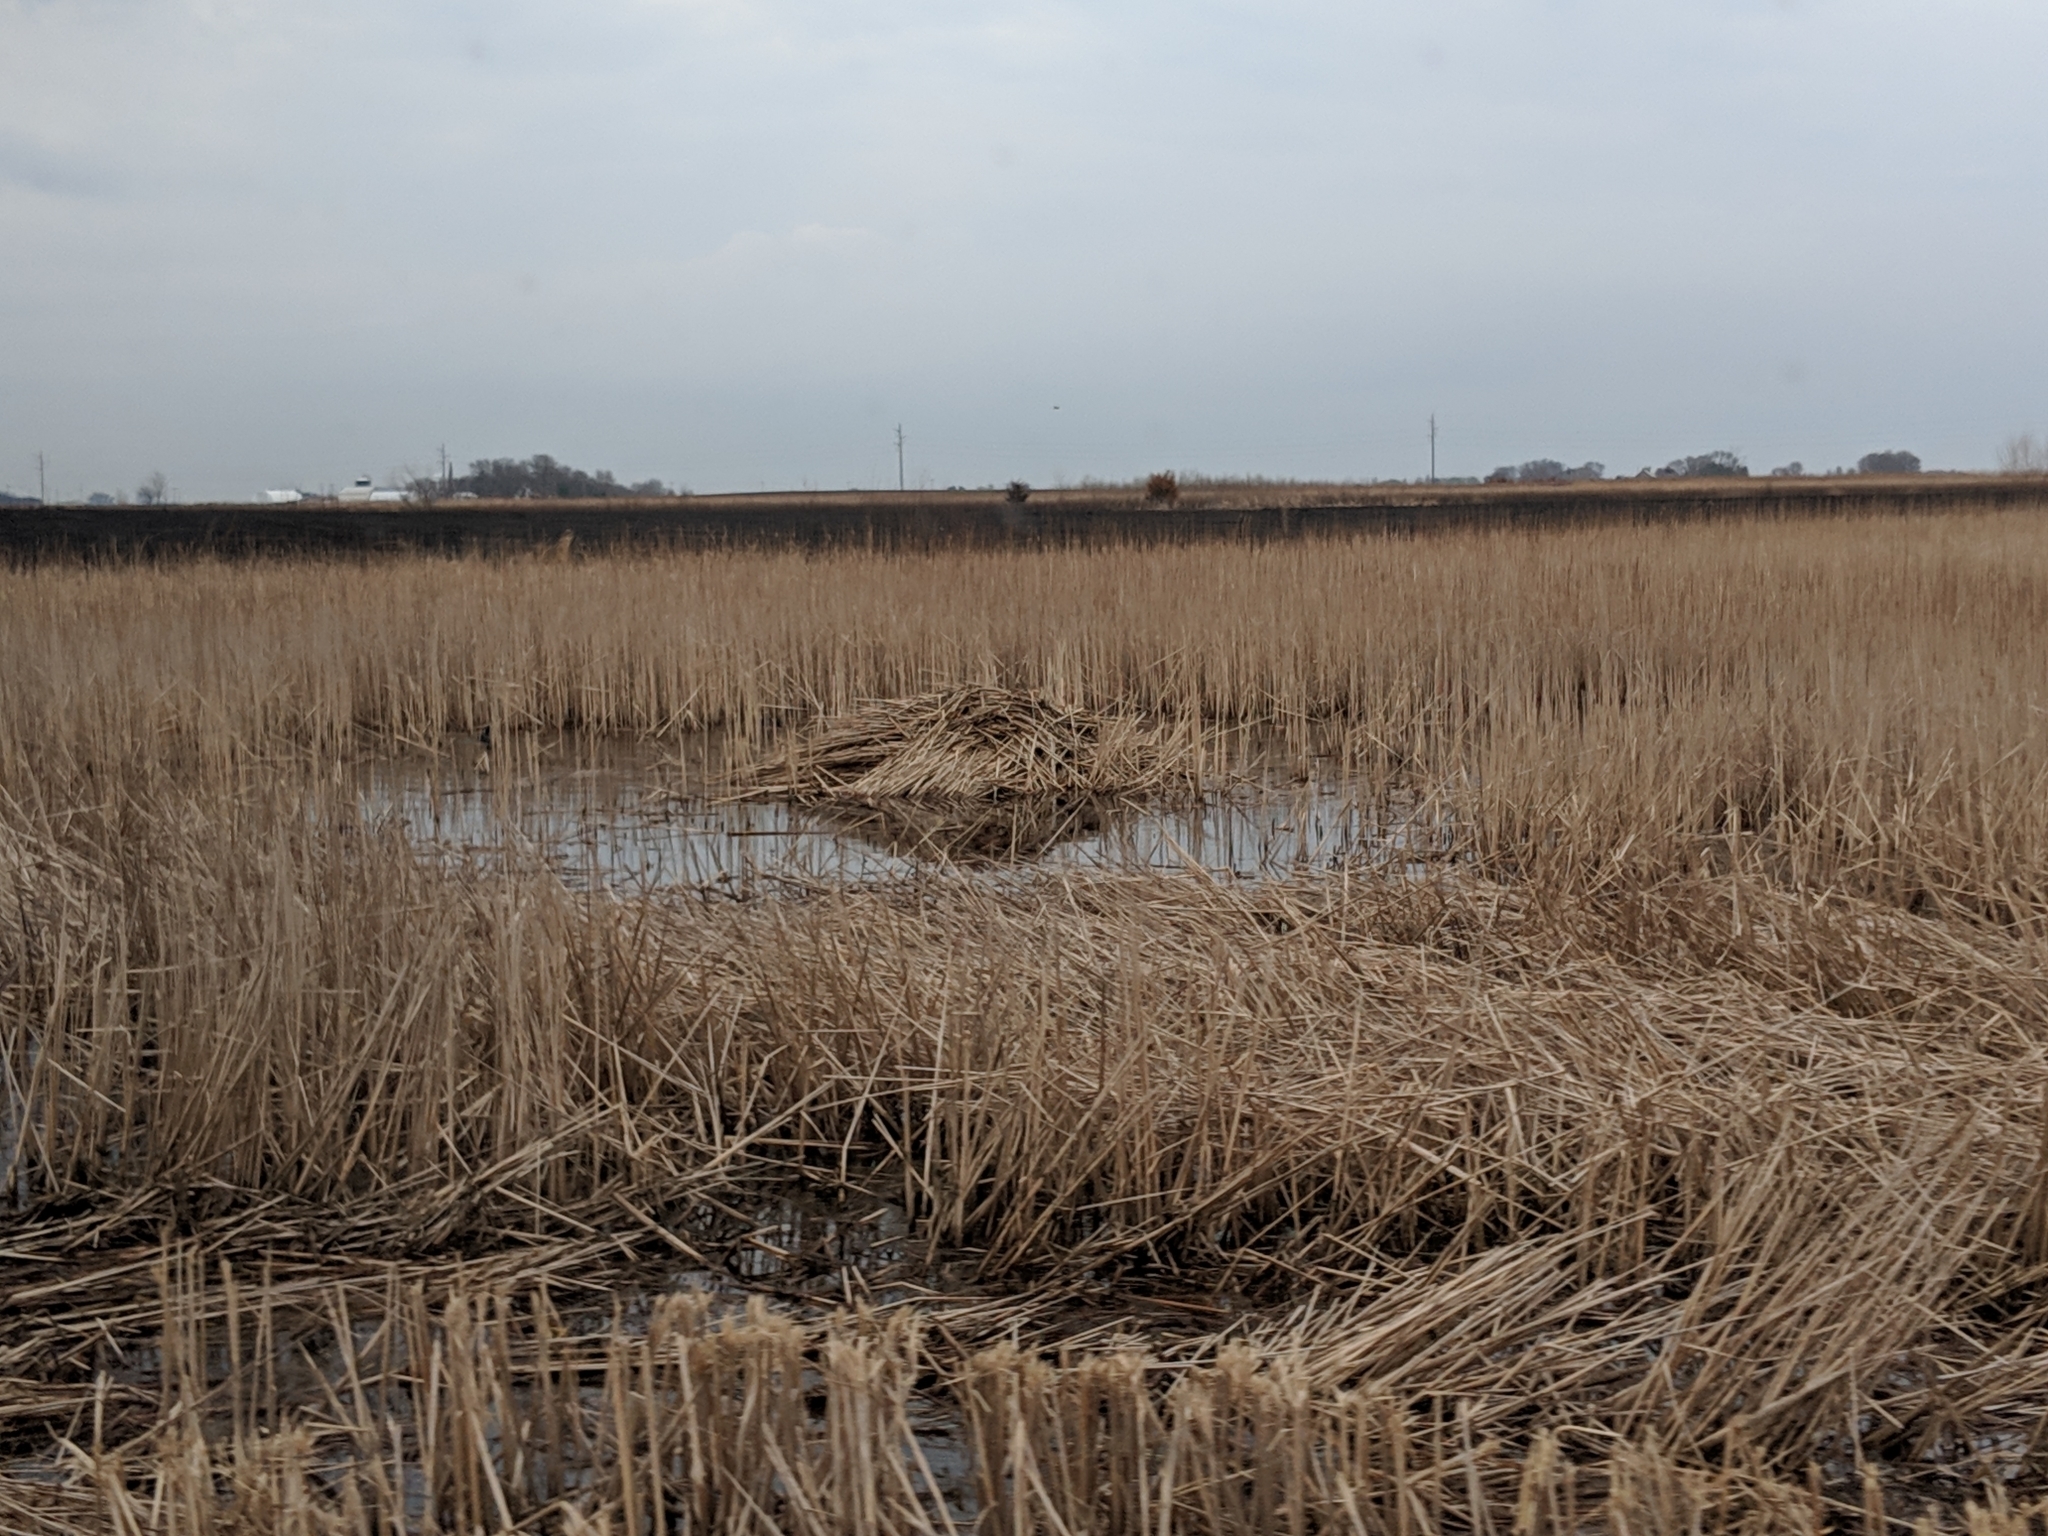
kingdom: Animalia
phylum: Chordata
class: Mammalia
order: Rodentia
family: Cricetidae
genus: Ondatra
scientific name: Ondatra zibethicus
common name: Muskrat
